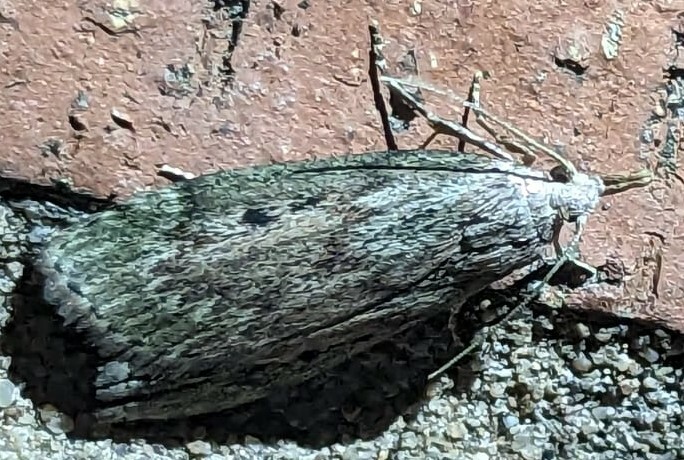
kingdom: Animalia
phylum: Arthropoda
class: Insecta
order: Lepidoptera
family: Pyralidae
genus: Aphomia
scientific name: Aphomia sociella
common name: Bee moth
